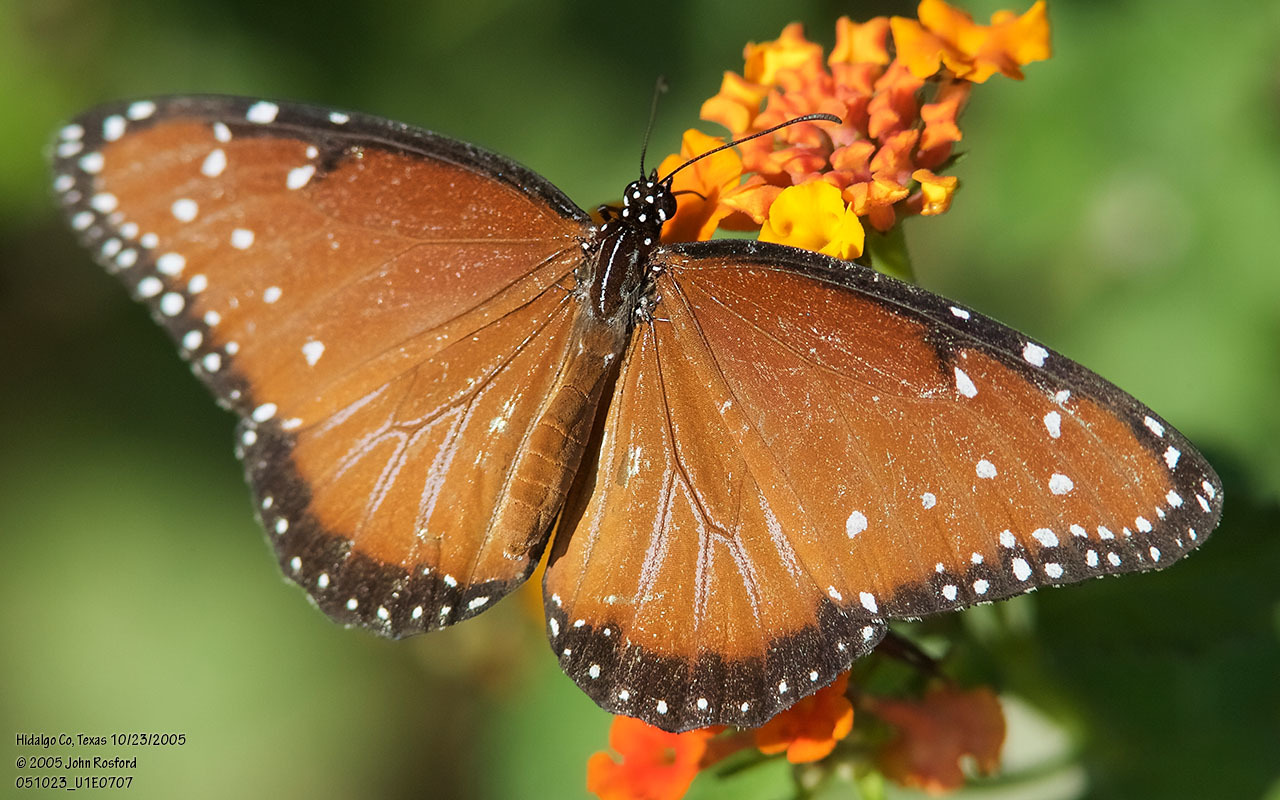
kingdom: Animalia
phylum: Arthropoda
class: Insecta
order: Lepidoptera
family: Nymphalidae
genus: Danaus
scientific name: Danaus gilippus
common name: Queen
